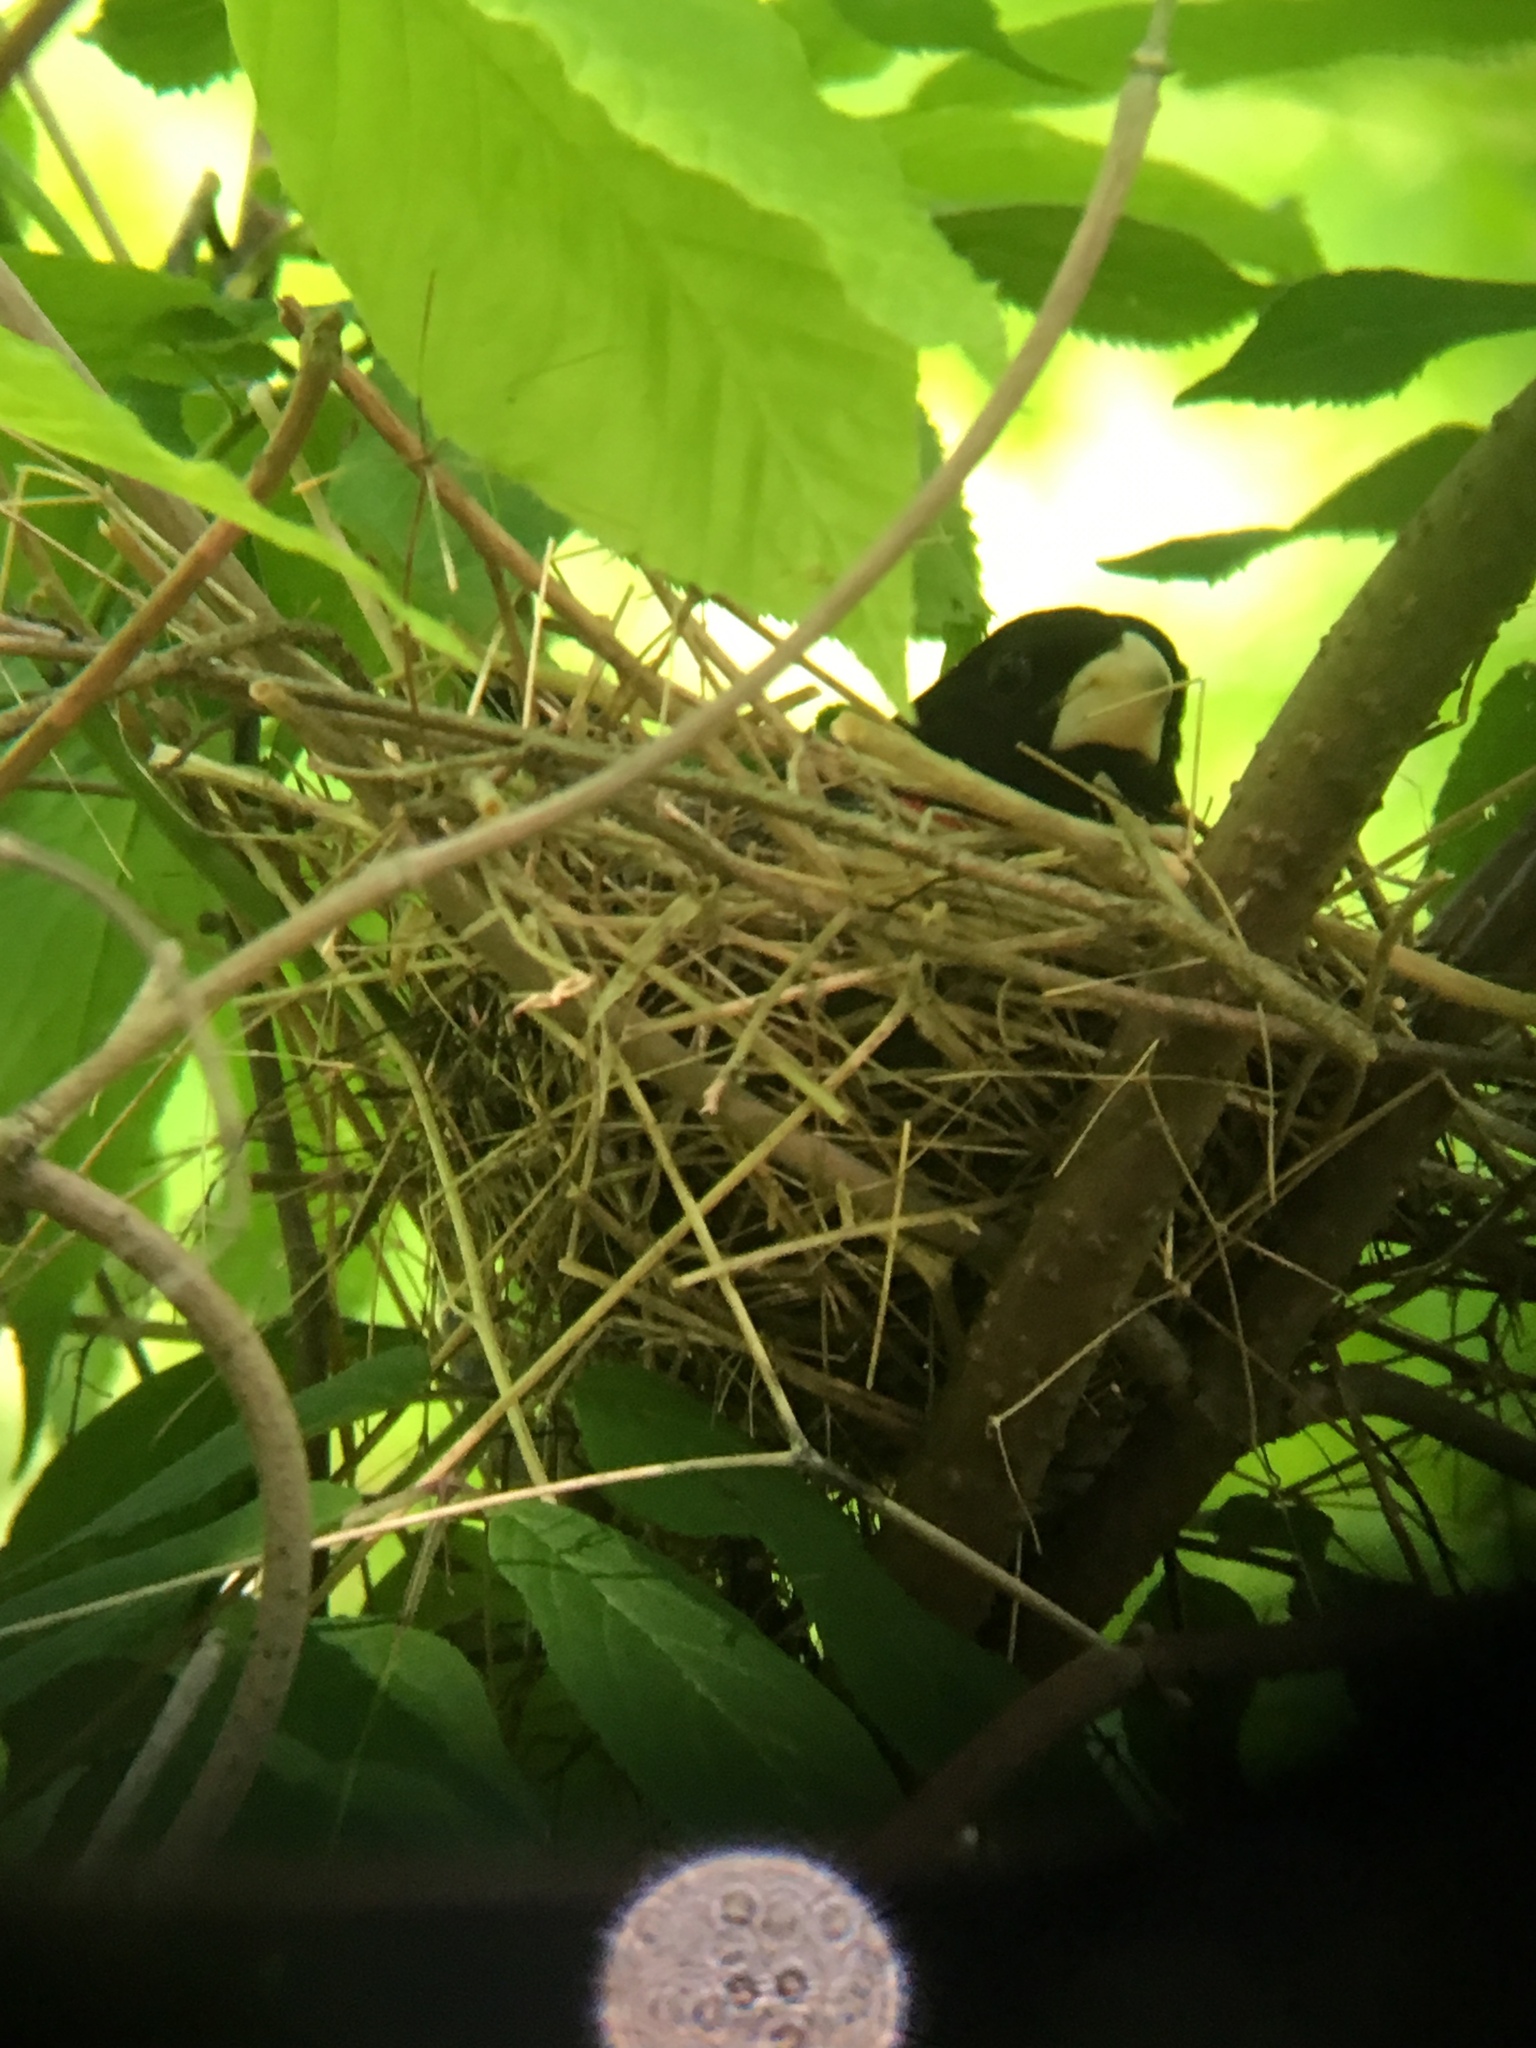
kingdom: Animalia
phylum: Chordata
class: Aves
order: Passeriformes
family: Cardinalidae
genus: Pheucticus
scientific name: Pheucticus ludovicianus
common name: Rose-breasted grosbeak
